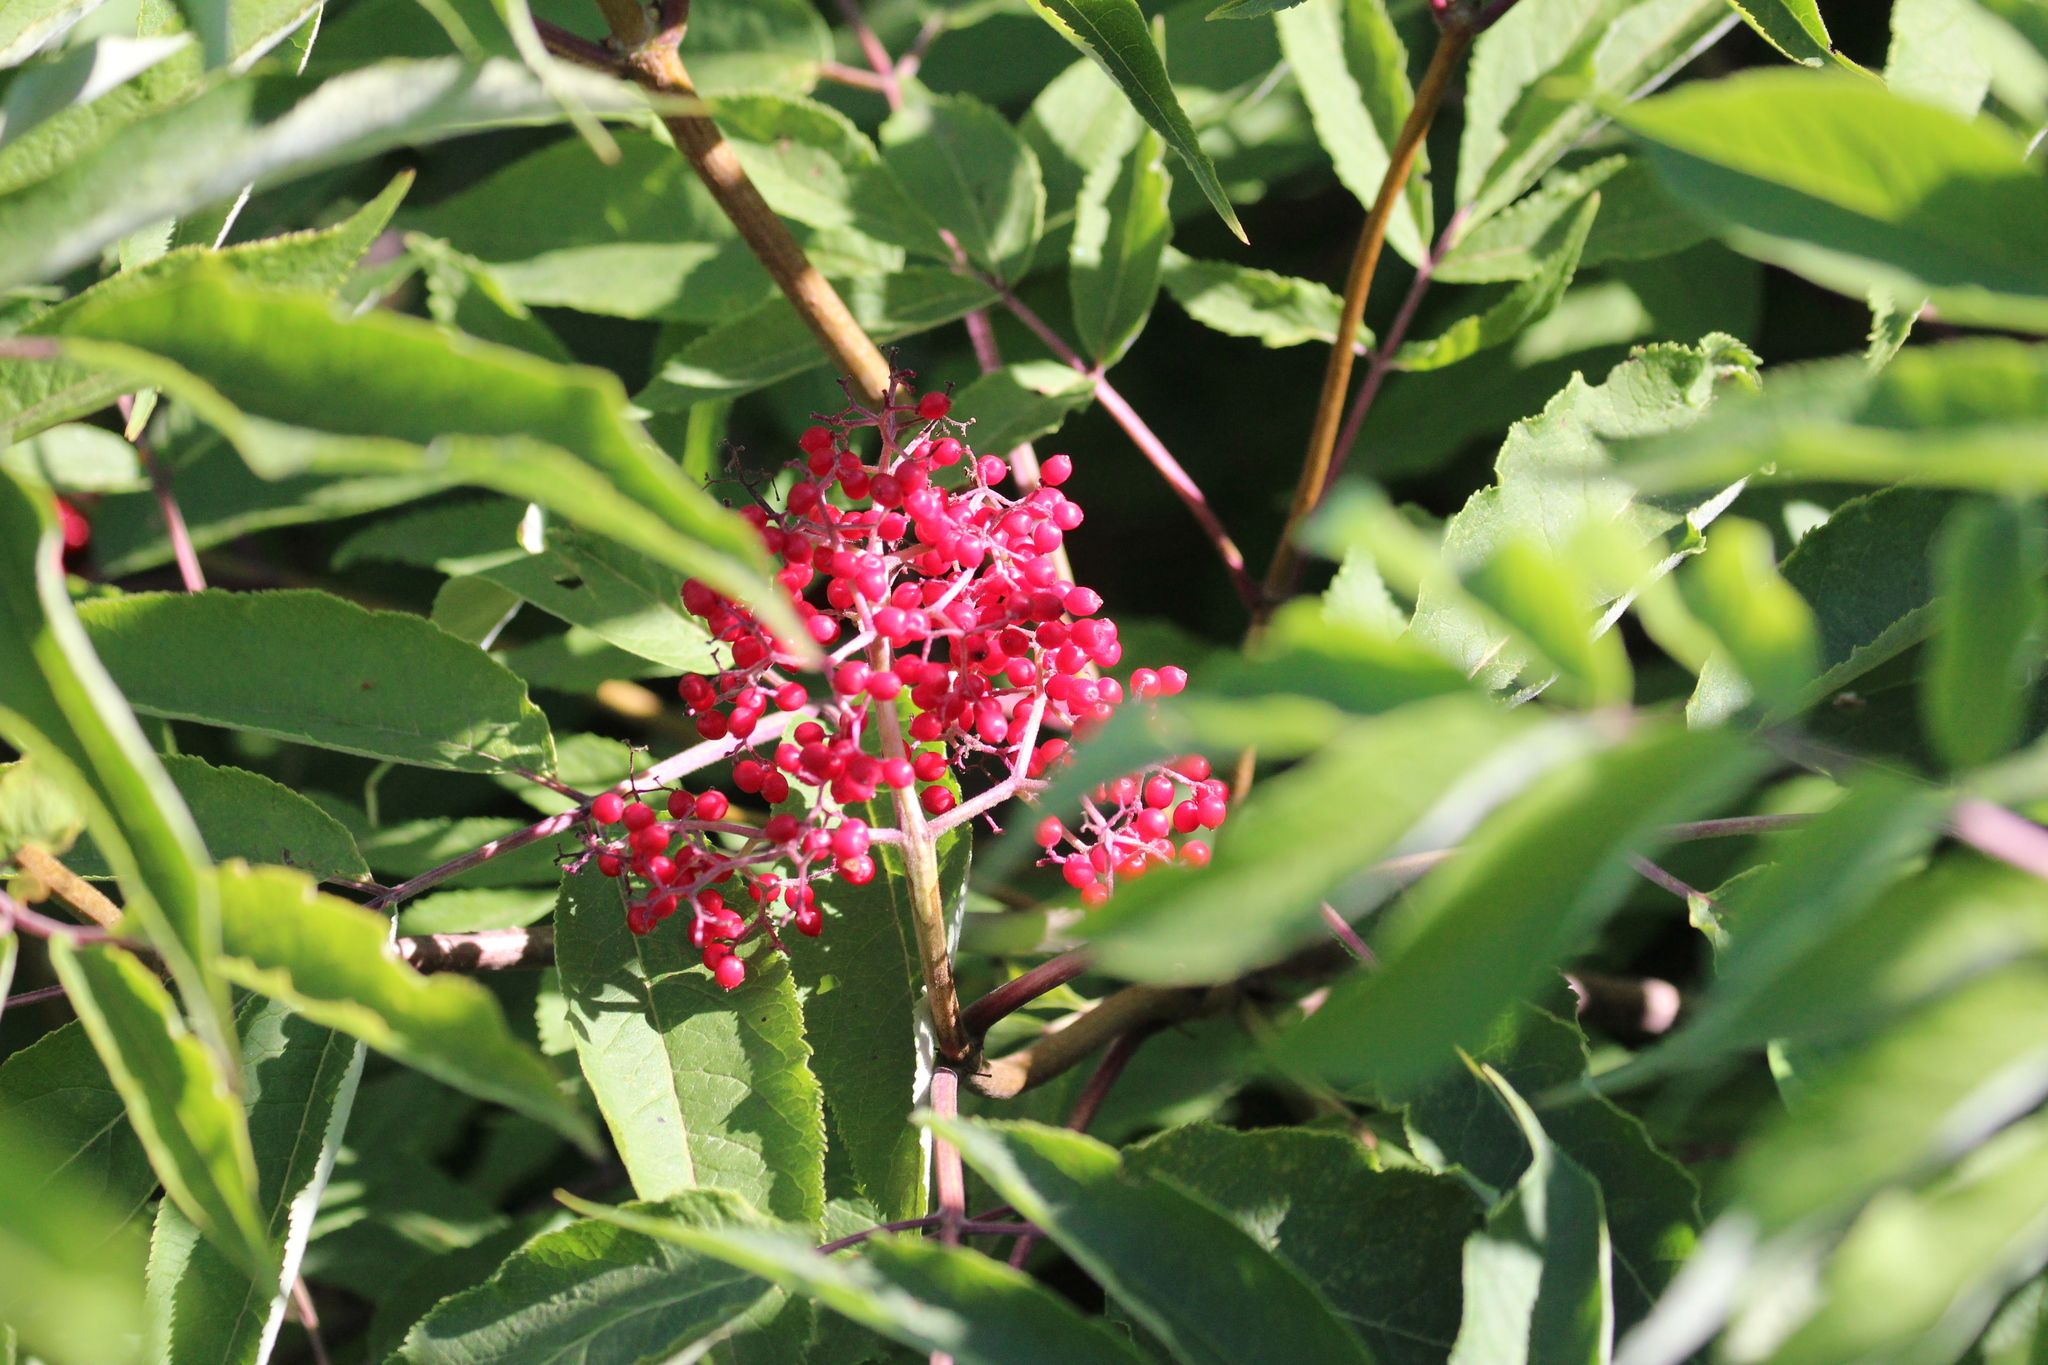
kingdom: Plantae
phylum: Tracheophyta
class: Magnoliopsida
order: Dipsacales
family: Viburnaceae
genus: Sambucus
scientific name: Sambucus racemosa
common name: Red-berried elder
